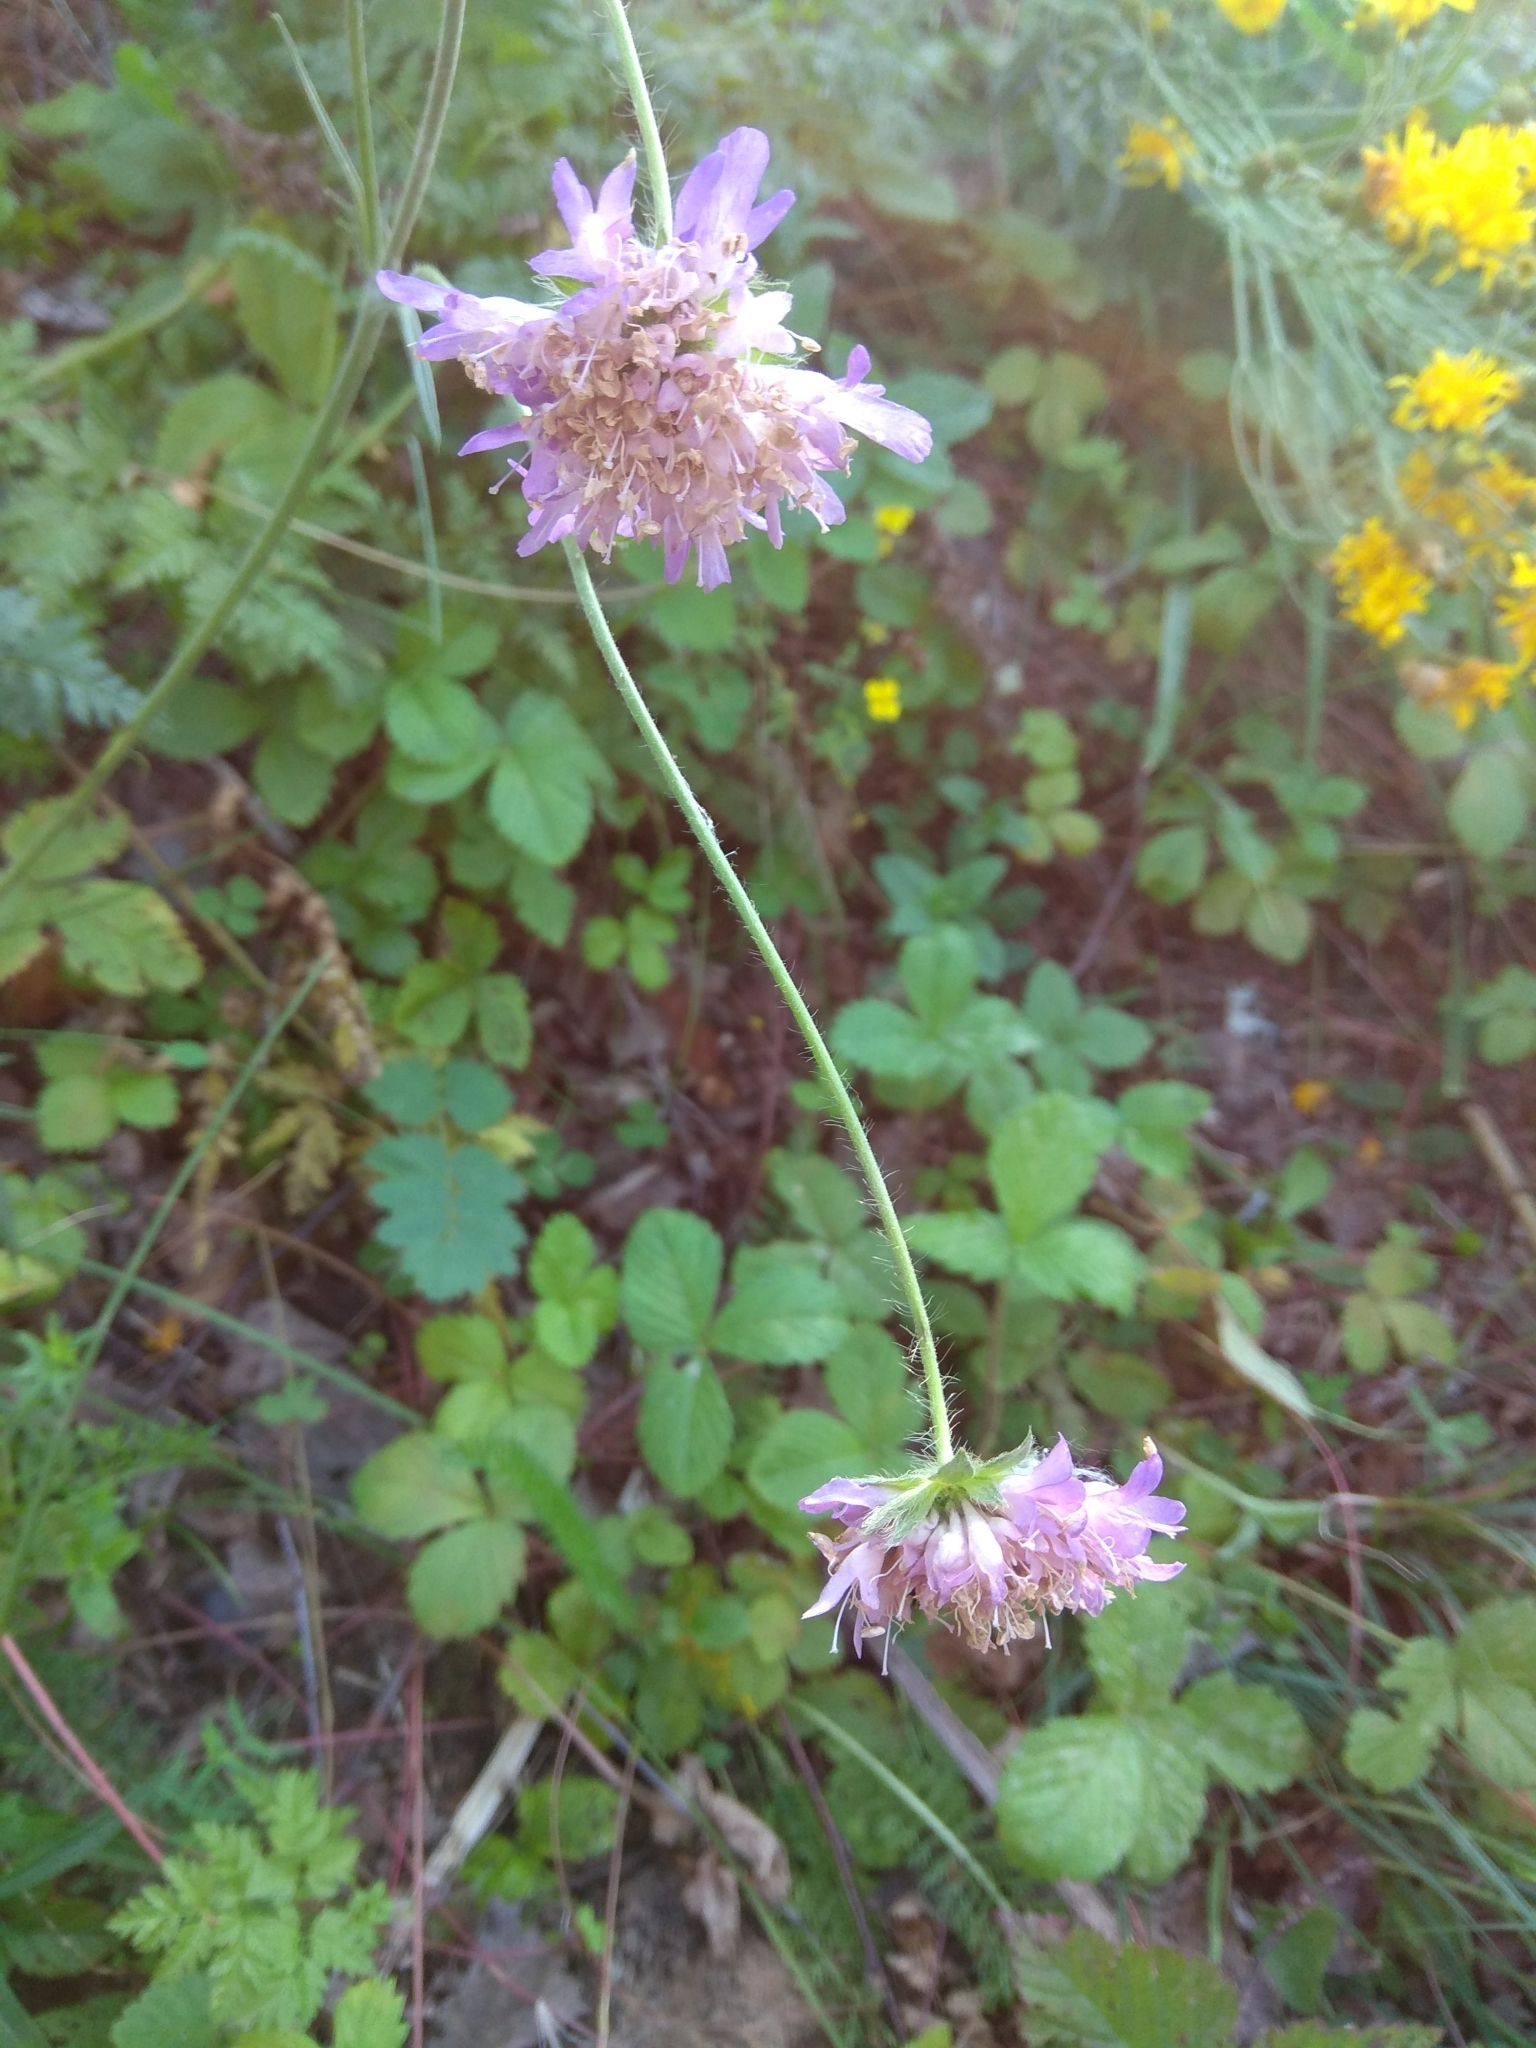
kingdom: Plantae
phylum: Tracheophyta
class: Magnoliopsida
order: Dipsacales
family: Caprifoliaceae
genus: Knautia
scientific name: Knautia arvensis
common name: Field scabiosa
